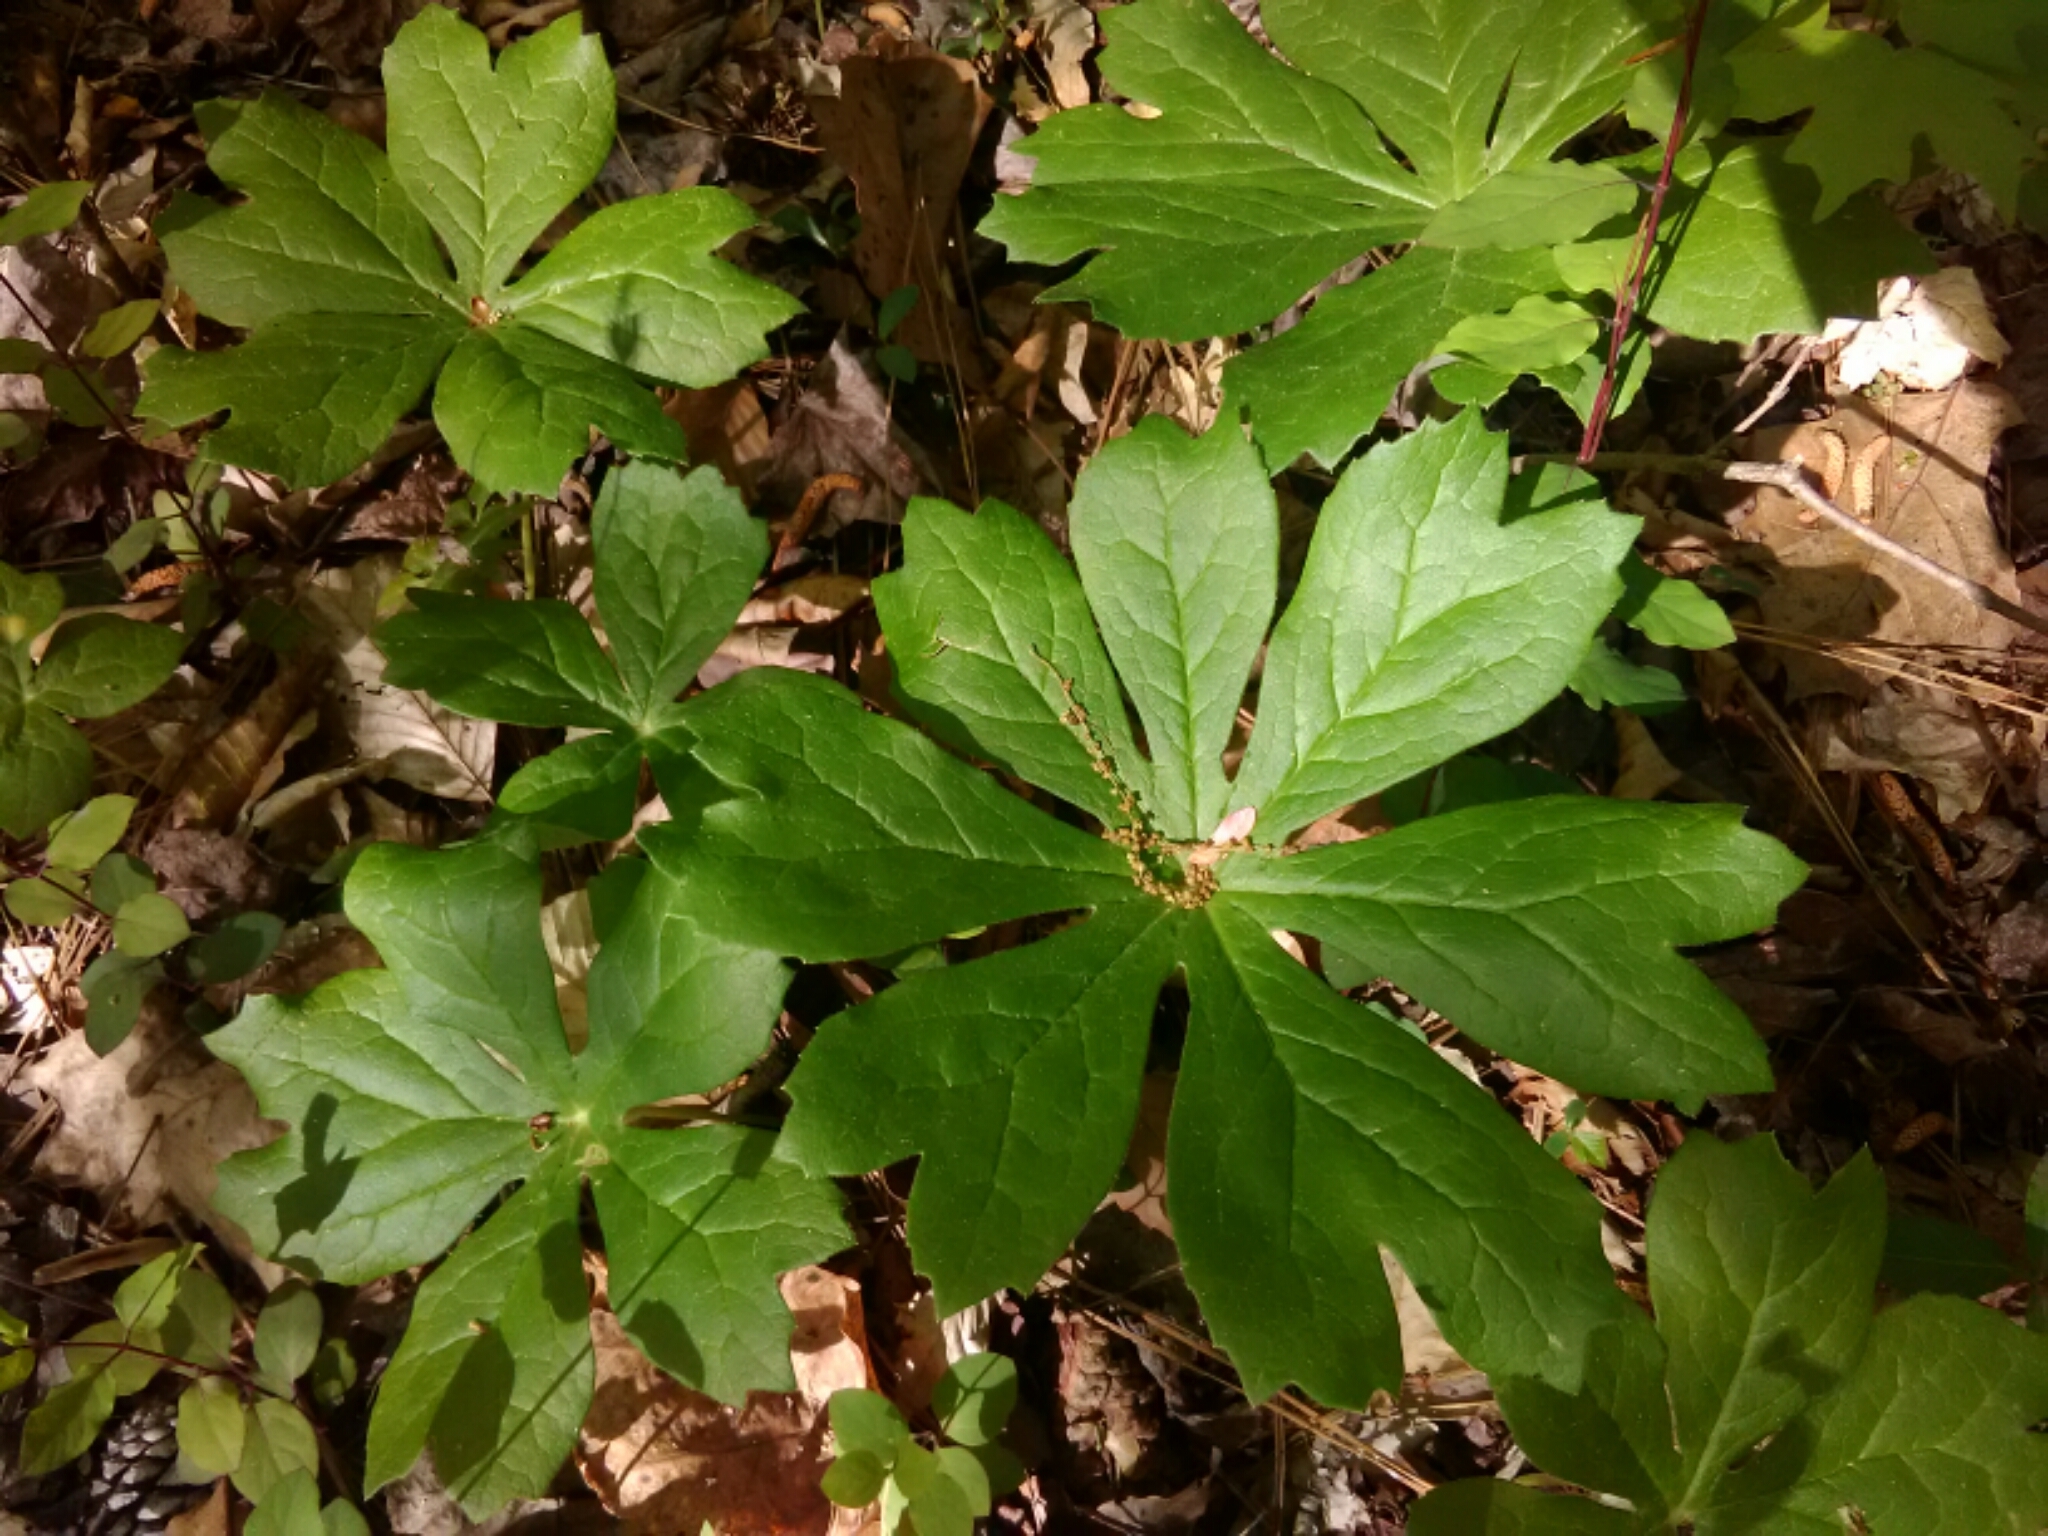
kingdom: Plantae
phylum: Tracheophyta
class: Magnoliopsida
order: Ranunculales
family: Berberidaceae
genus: Podophyllum
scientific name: Podophyllum peltatum
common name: Wild mandrake
